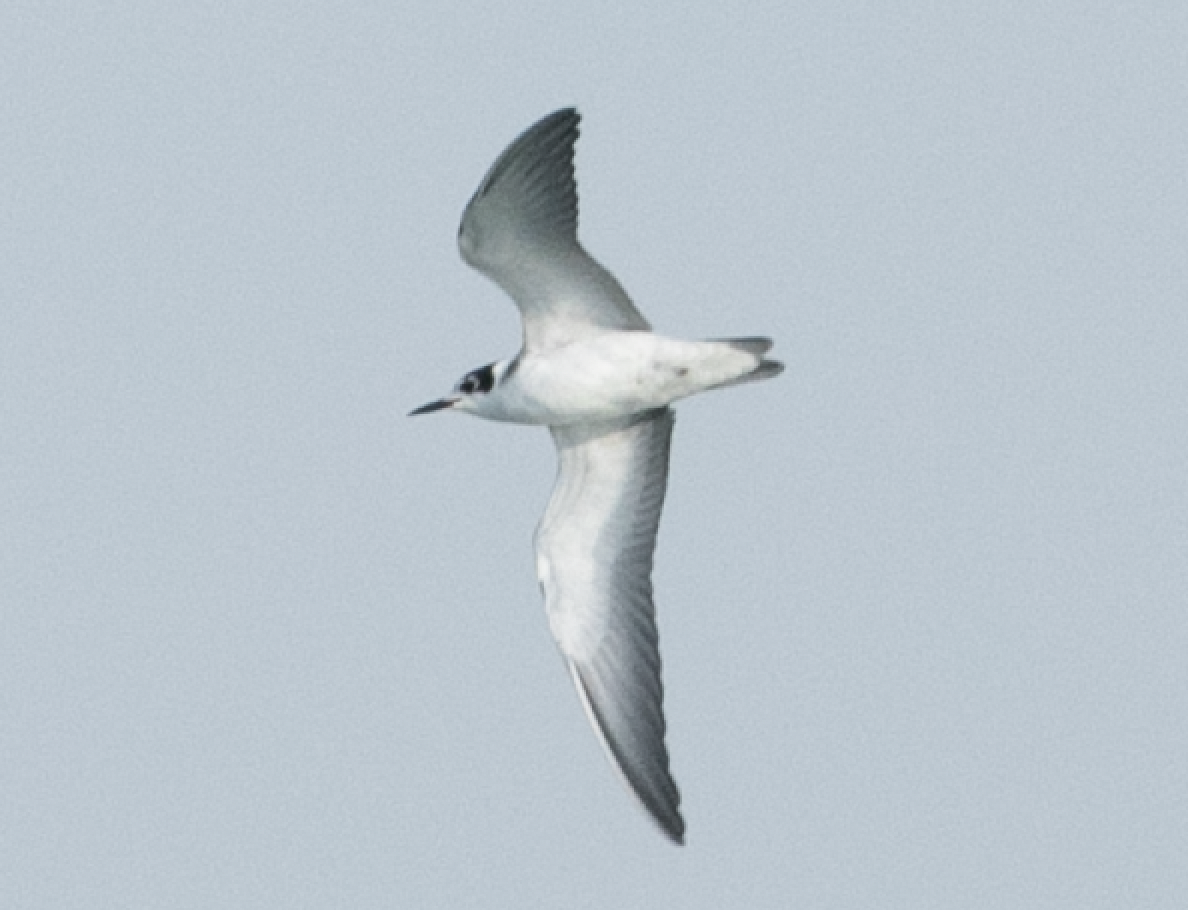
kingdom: Animalia
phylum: Chordata
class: Aves
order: Charadriiformes
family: Laridae
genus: Chlidonias
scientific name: Chlidonias niger
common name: Black tern
